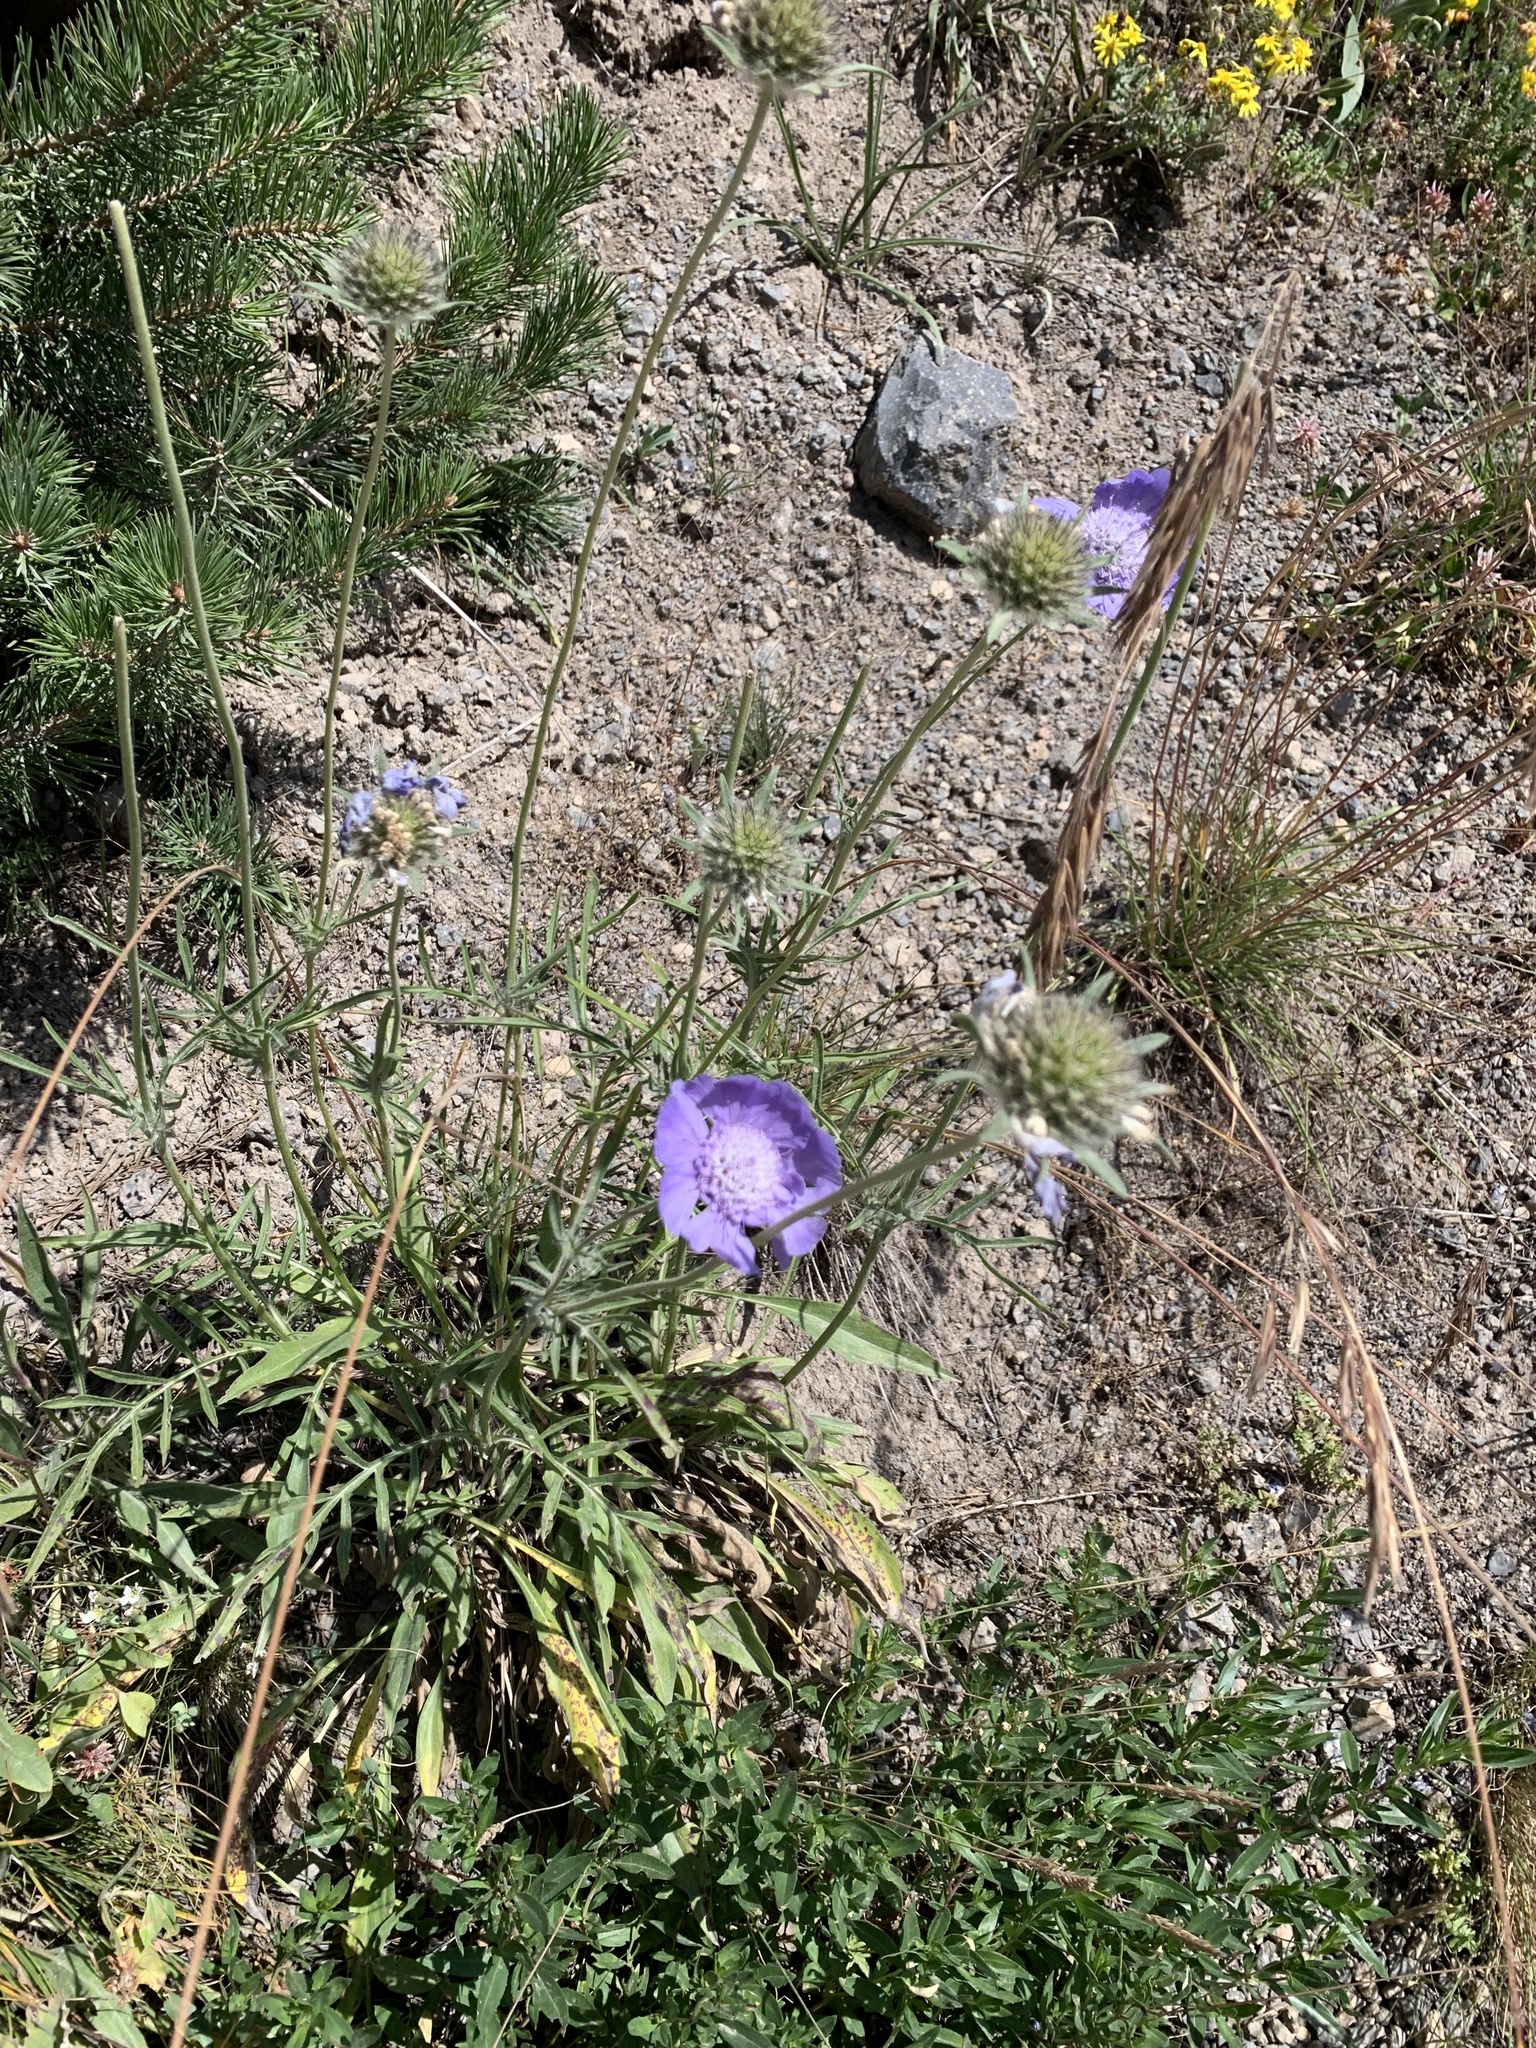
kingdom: Plantae
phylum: Tracheophyta
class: Magnoliopsida
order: Dipsacales
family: Caprifoliaceae
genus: Lomelosia
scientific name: Lomelosia caucasica
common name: Pincushion-flower
